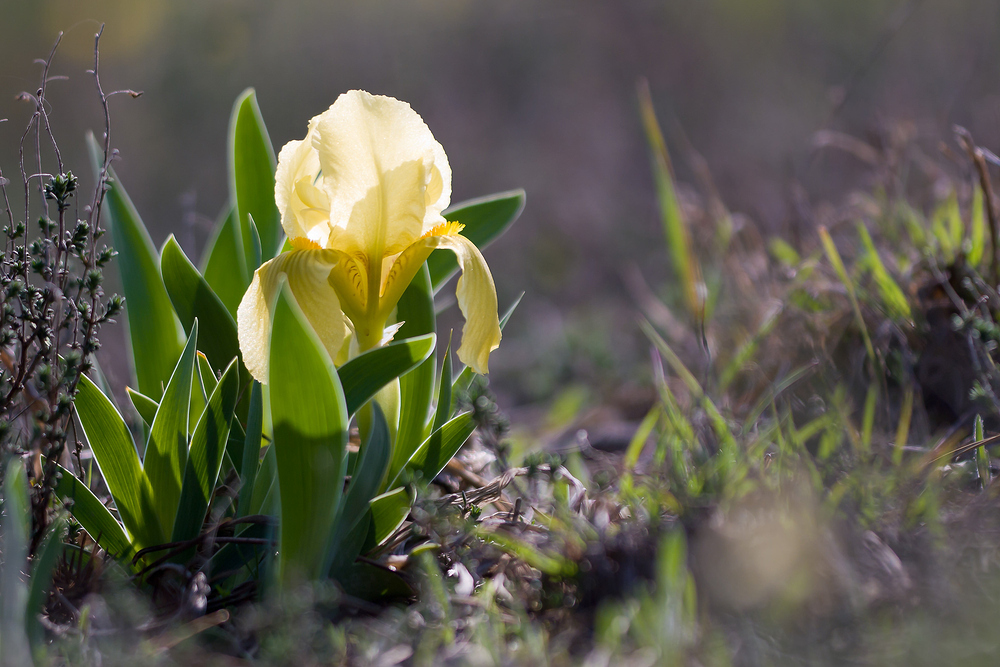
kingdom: Plantae
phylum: Tracheophyta
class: Liliopsida
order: Asparagales
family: Iridaceae
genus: Iris
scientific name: Iris lutescens
